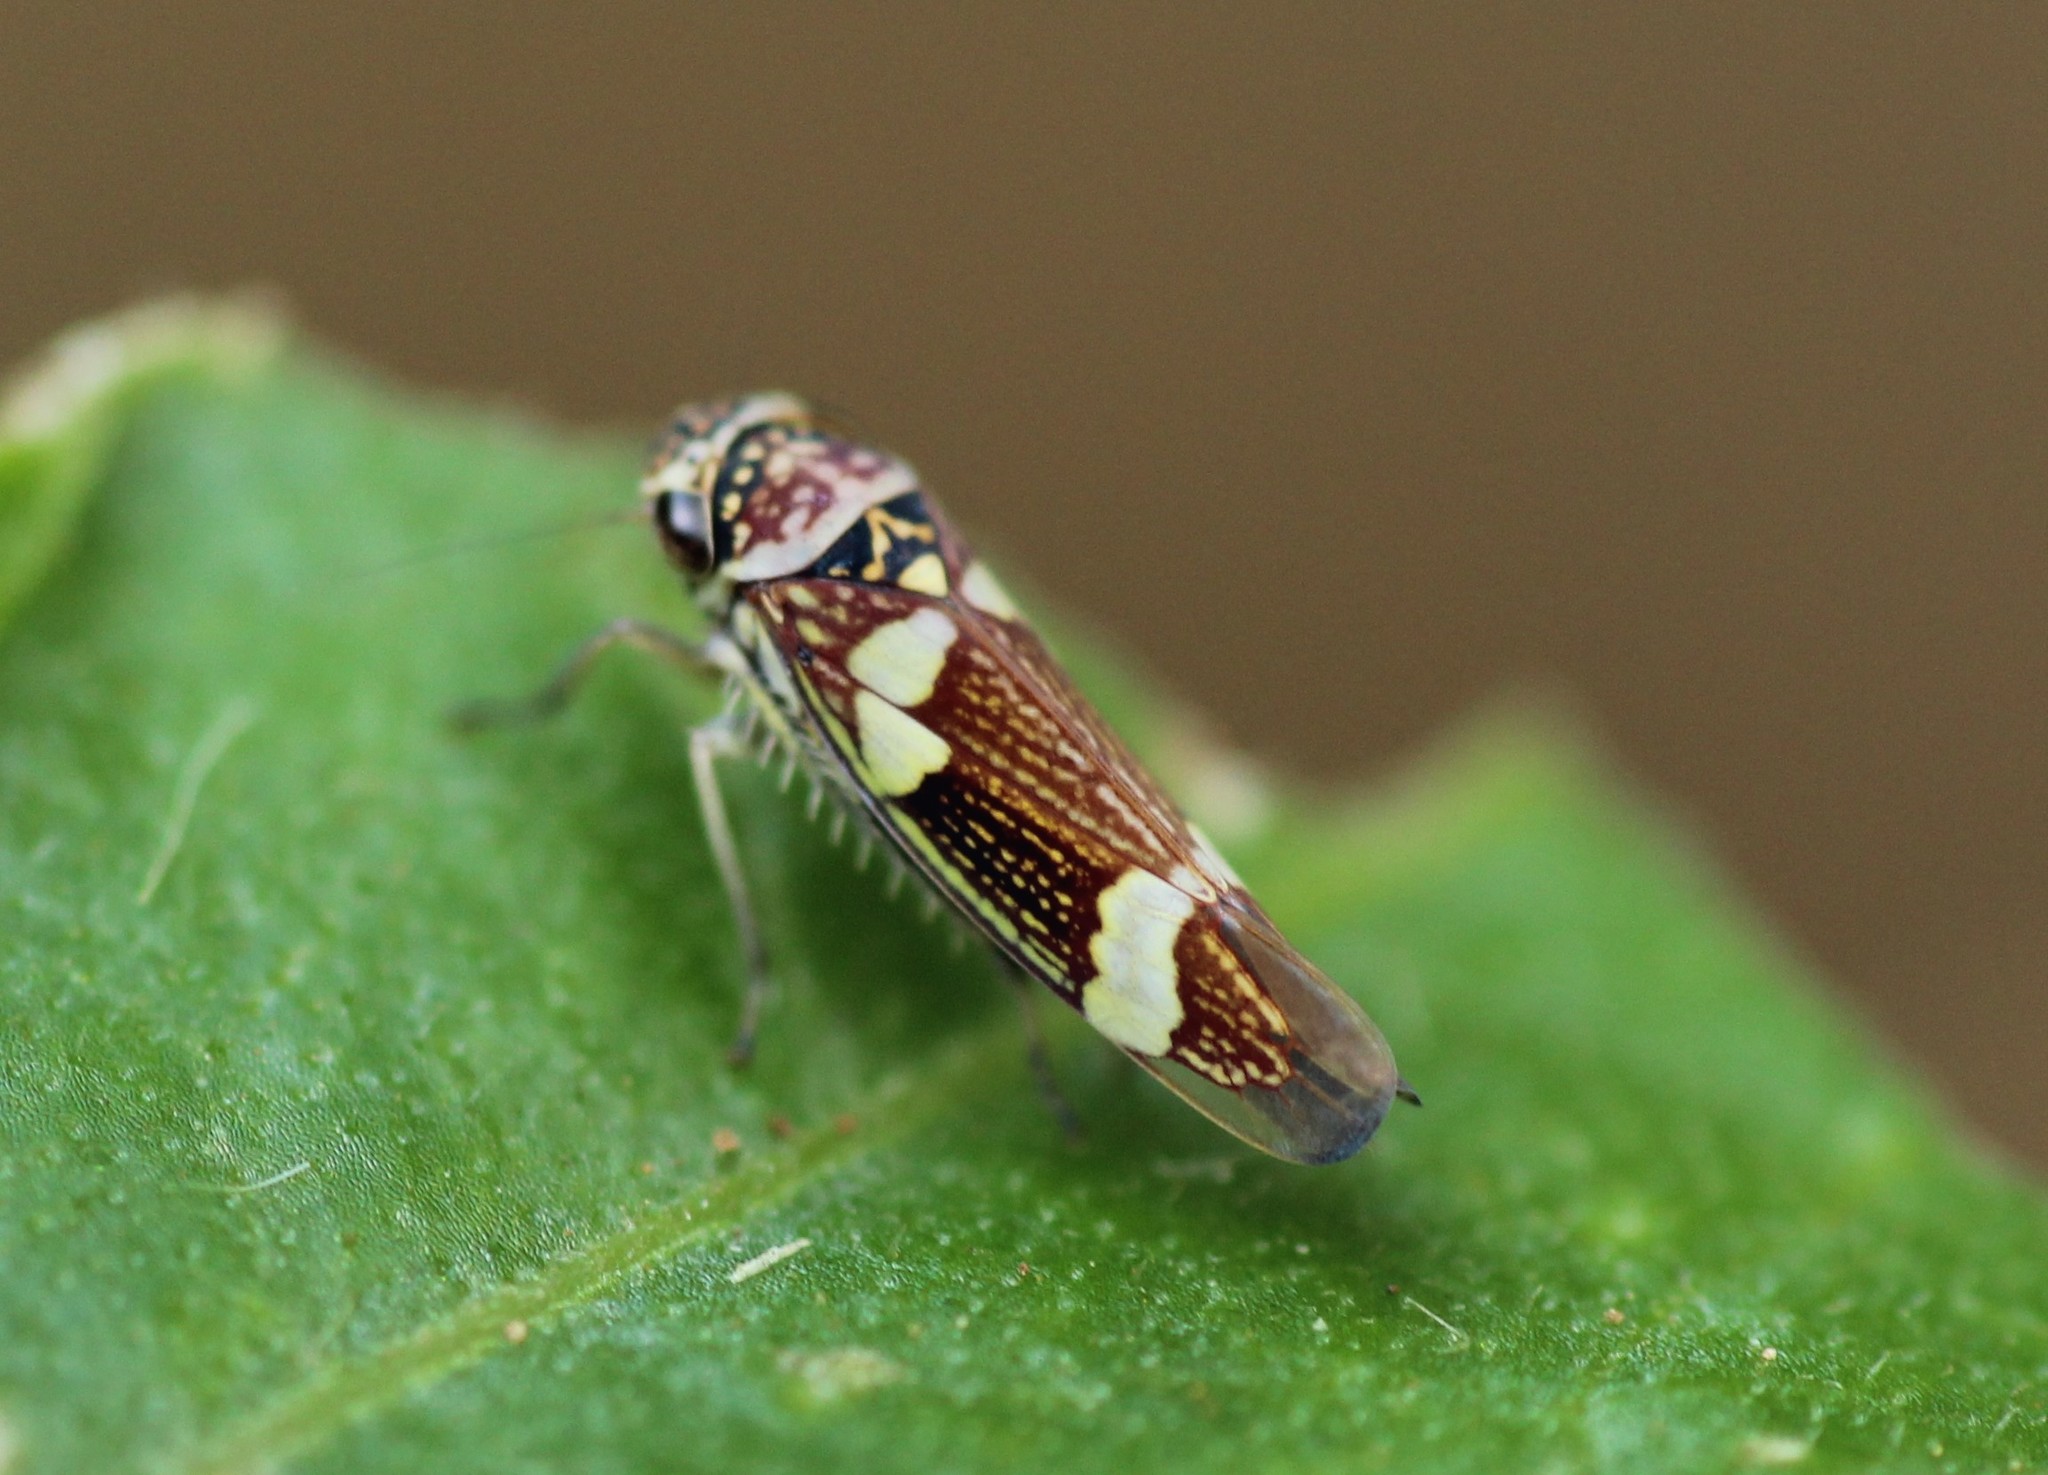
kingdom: Animalia
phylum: Arthropoda
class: Insecta
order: Hemiptera
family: Cicadellidae
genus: Macugonalia
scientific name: Macugonalia leucomelas
